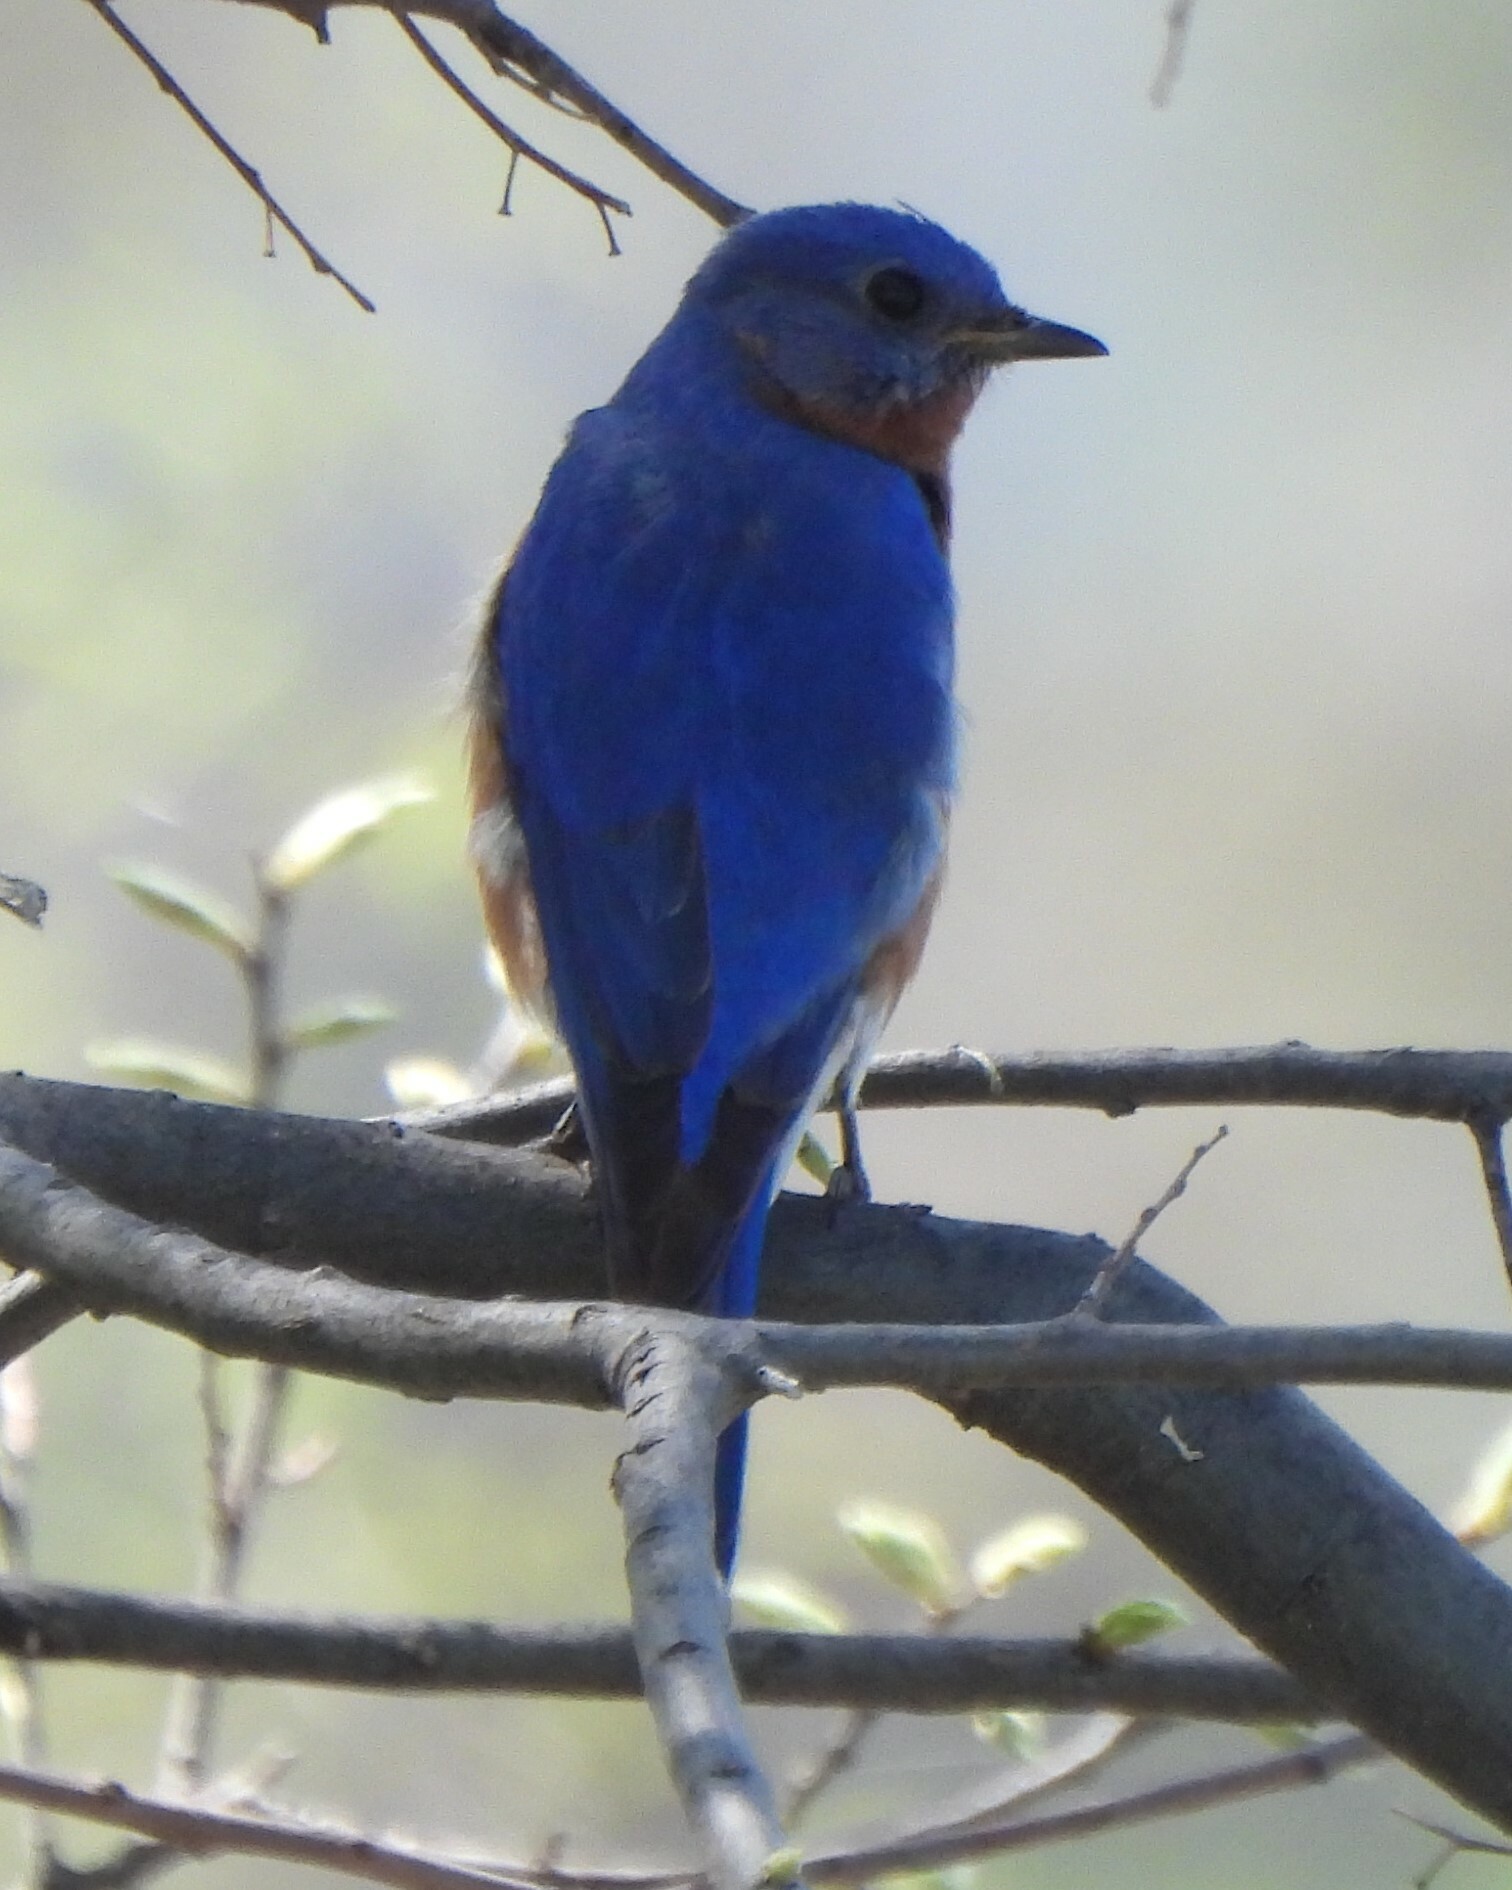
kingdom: Animalia
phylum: Chordata
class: Aves
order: Passeriformes
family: Turdidae
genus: Sialia
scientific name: Sialia sialis
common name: Eastern bluebird
